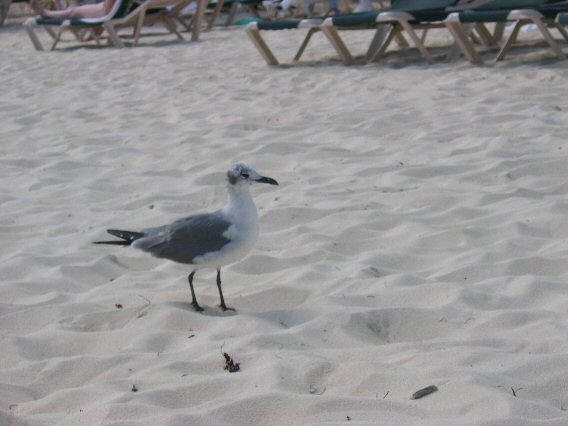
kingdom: Animalia
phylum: Chordata
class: Aves
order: Charadriiformes
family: Laridae
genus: Leucophaeus
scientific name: Leucophaeus atricilla
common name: Laughing gull
